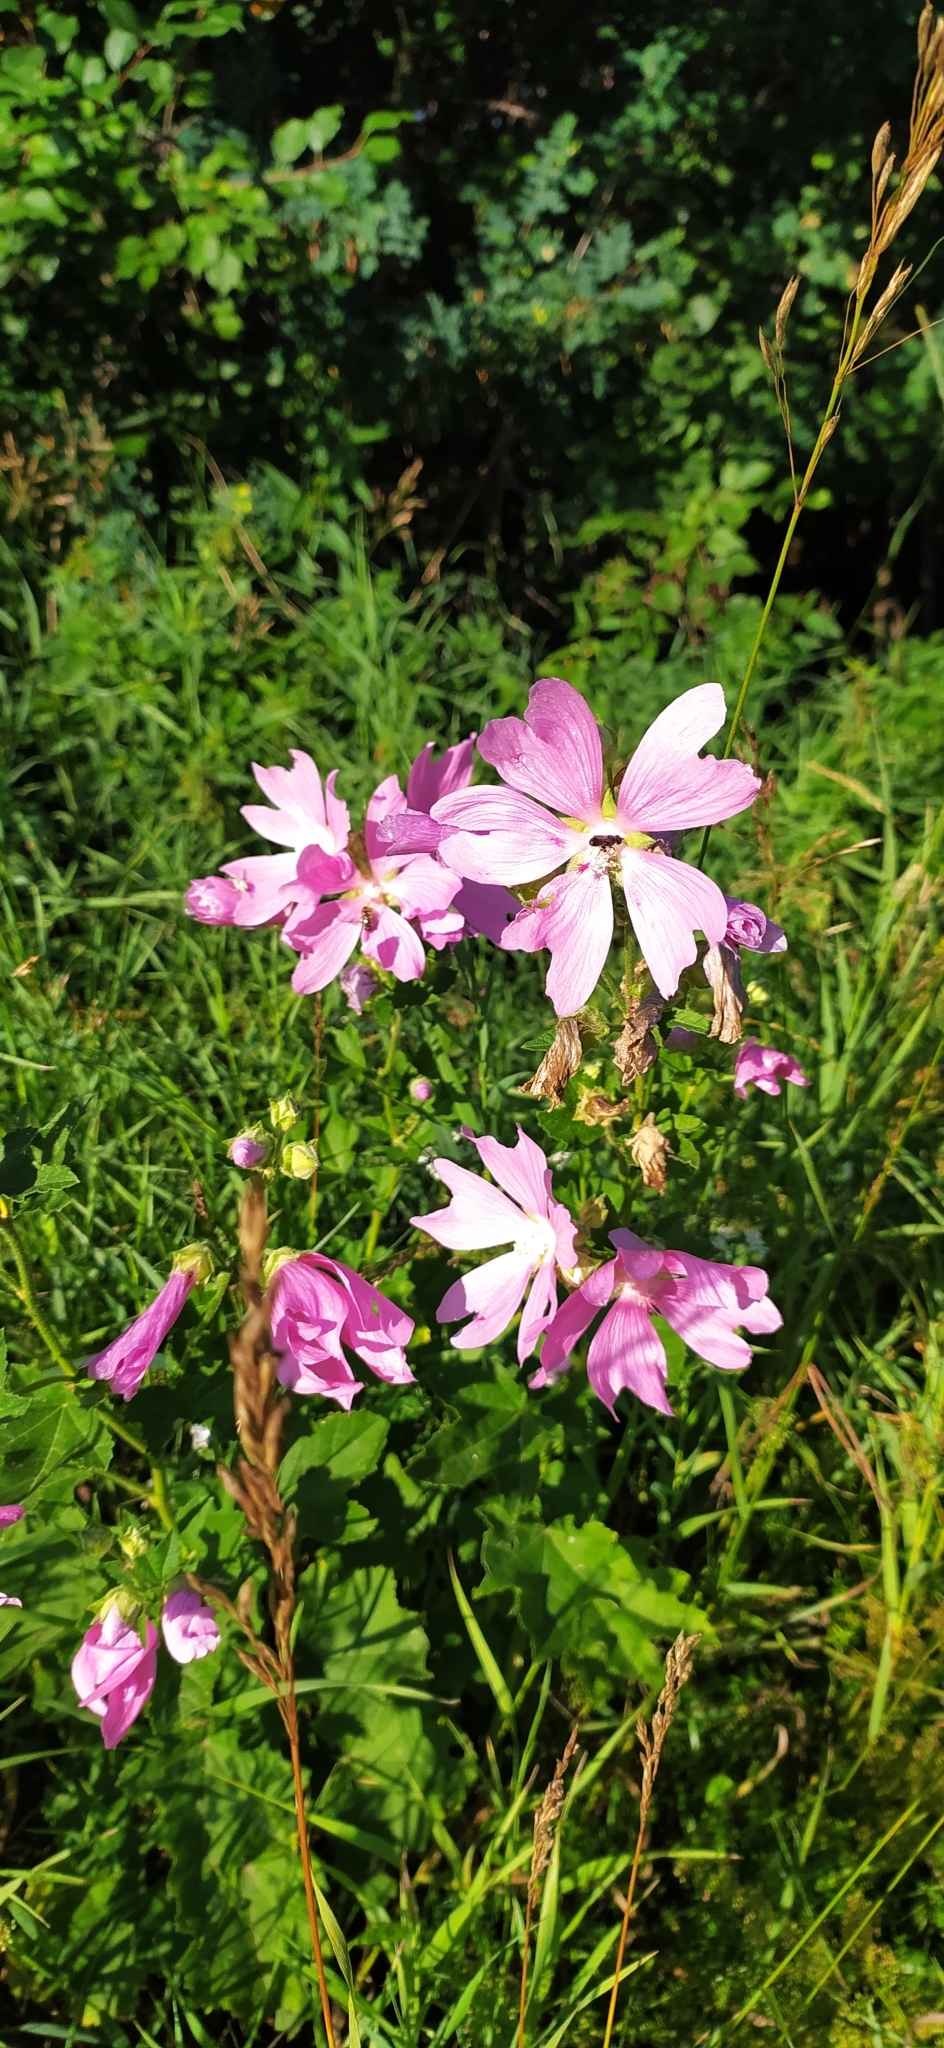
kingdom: Plantae
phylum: Tracheophyta
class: Magnoliopsida
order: Malvales
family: Malvaceae
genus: Malva
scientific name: Malva thuringiaca
